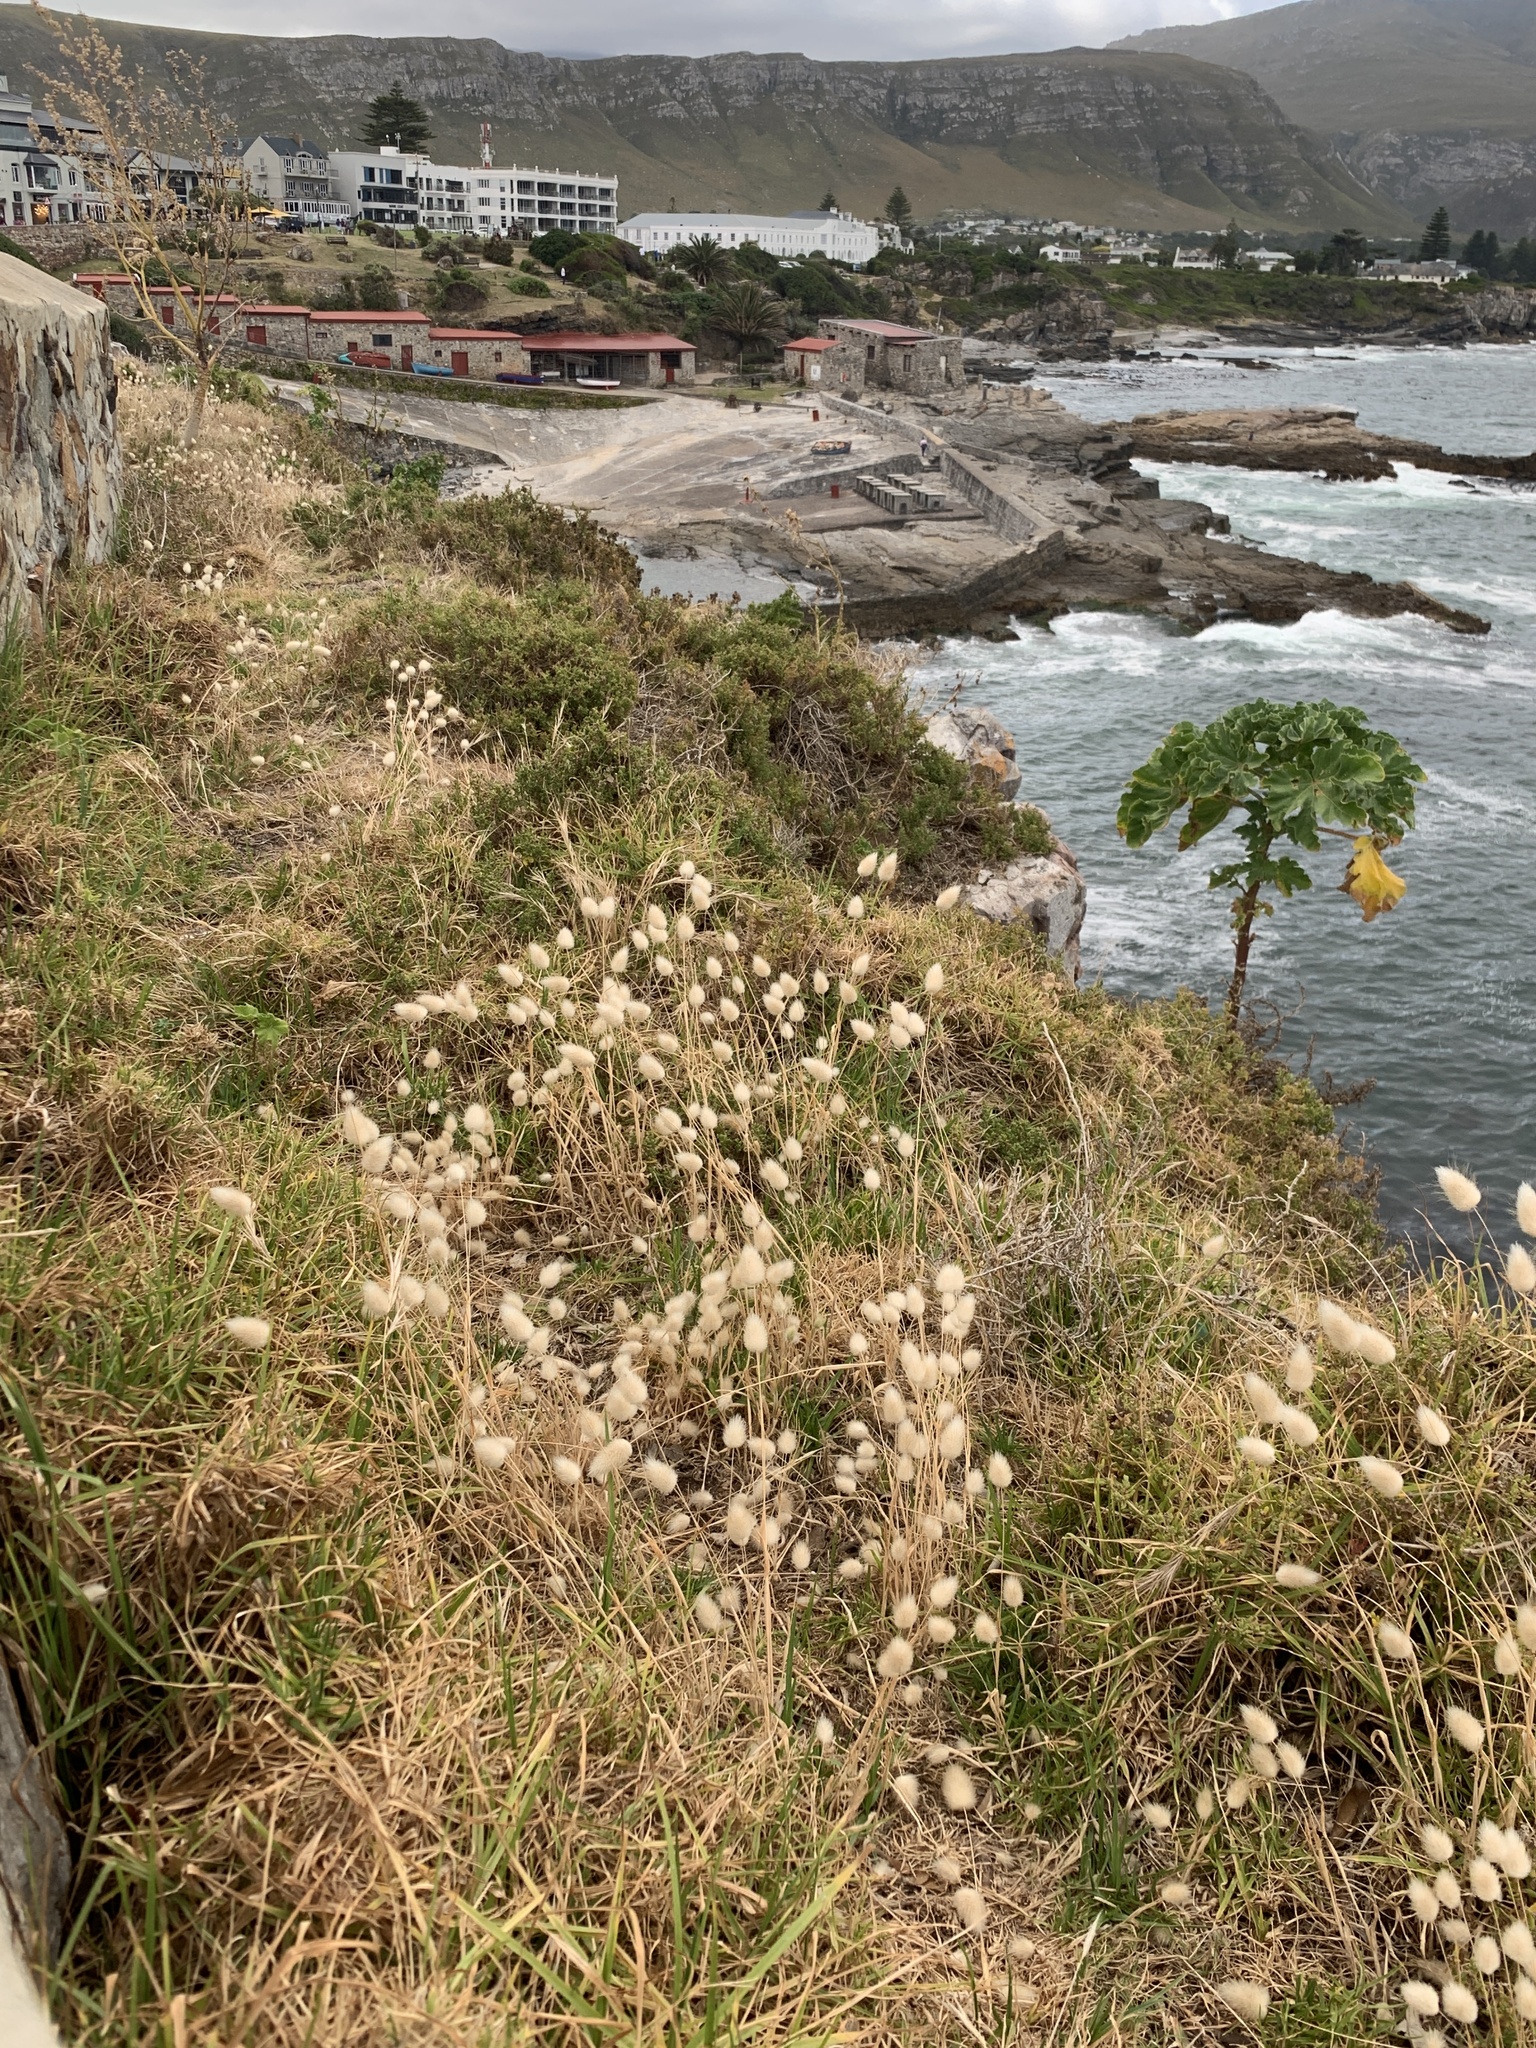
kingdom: Plantae
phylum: Tracheophyta
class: Liliopsida
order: Poales
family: Poaceae
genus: Lagurus
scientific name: Lagurus ovatus
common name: Hare's-tail
